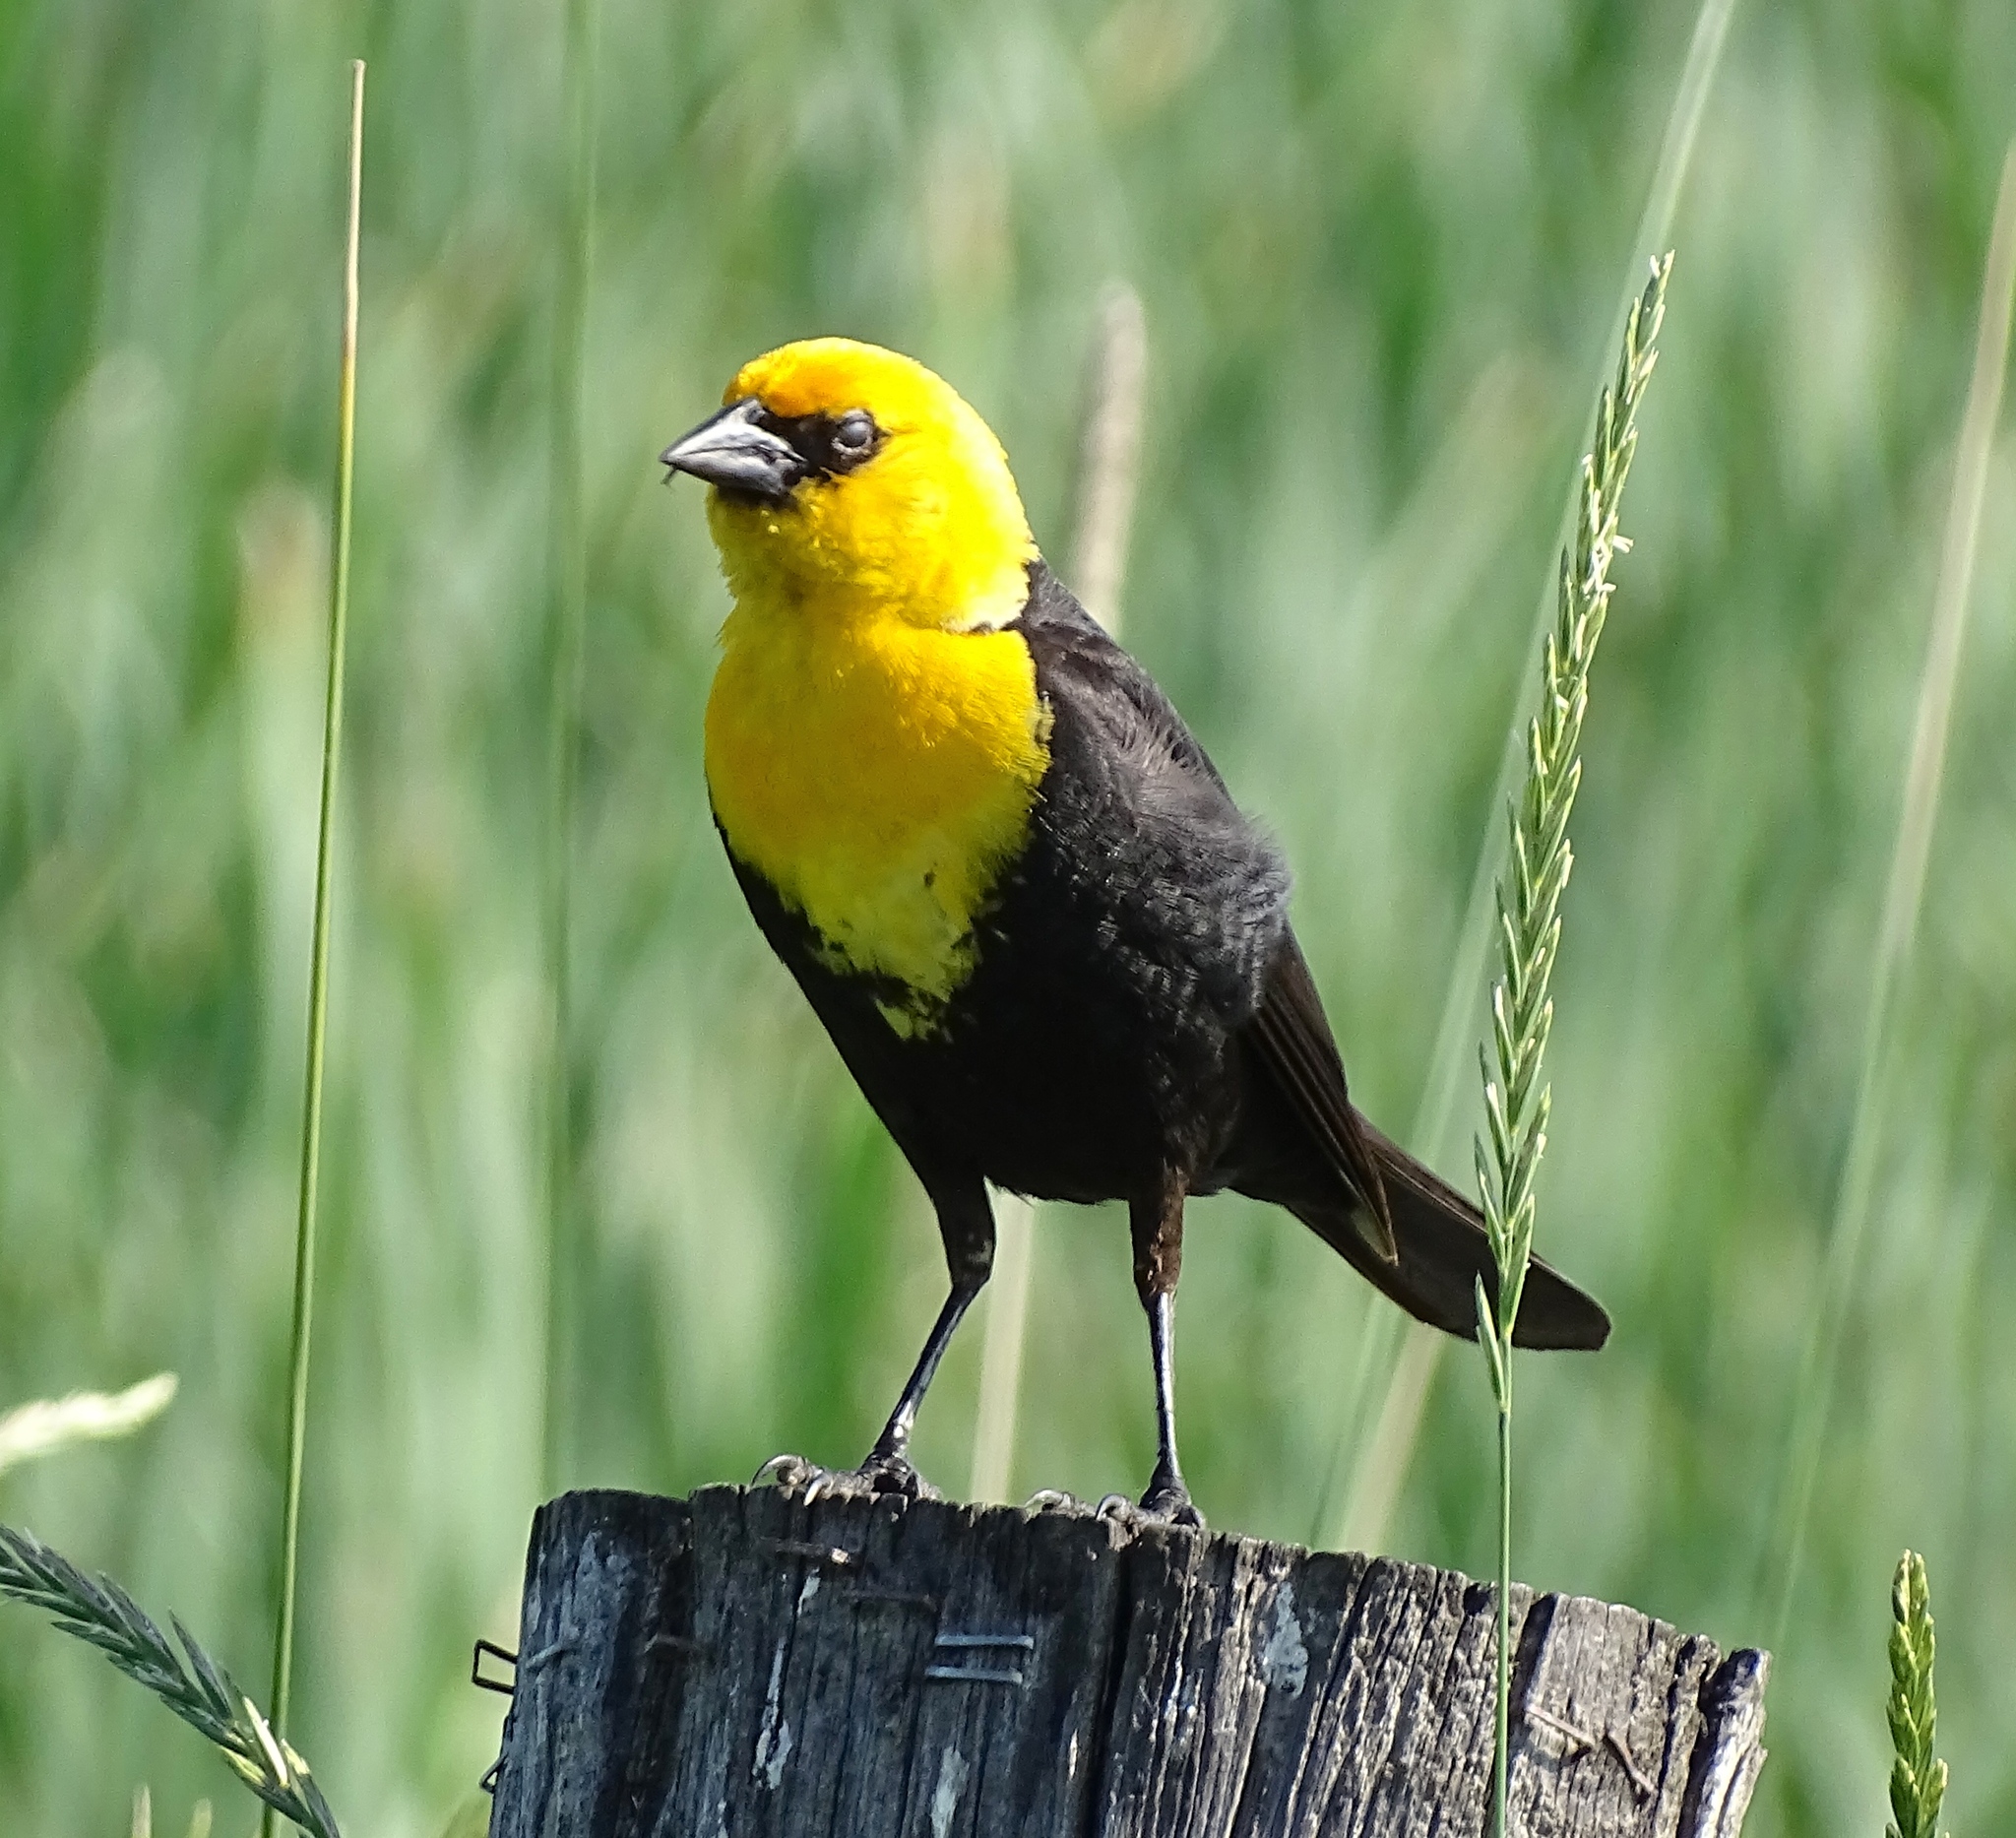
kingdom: Animalia
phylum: Chordata
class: Aves
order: Passeriformes
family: Icteridae
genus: Xanthocephalus
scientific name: Xanthocephalus xanthocephalus
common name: Yellow-headed blackbird
